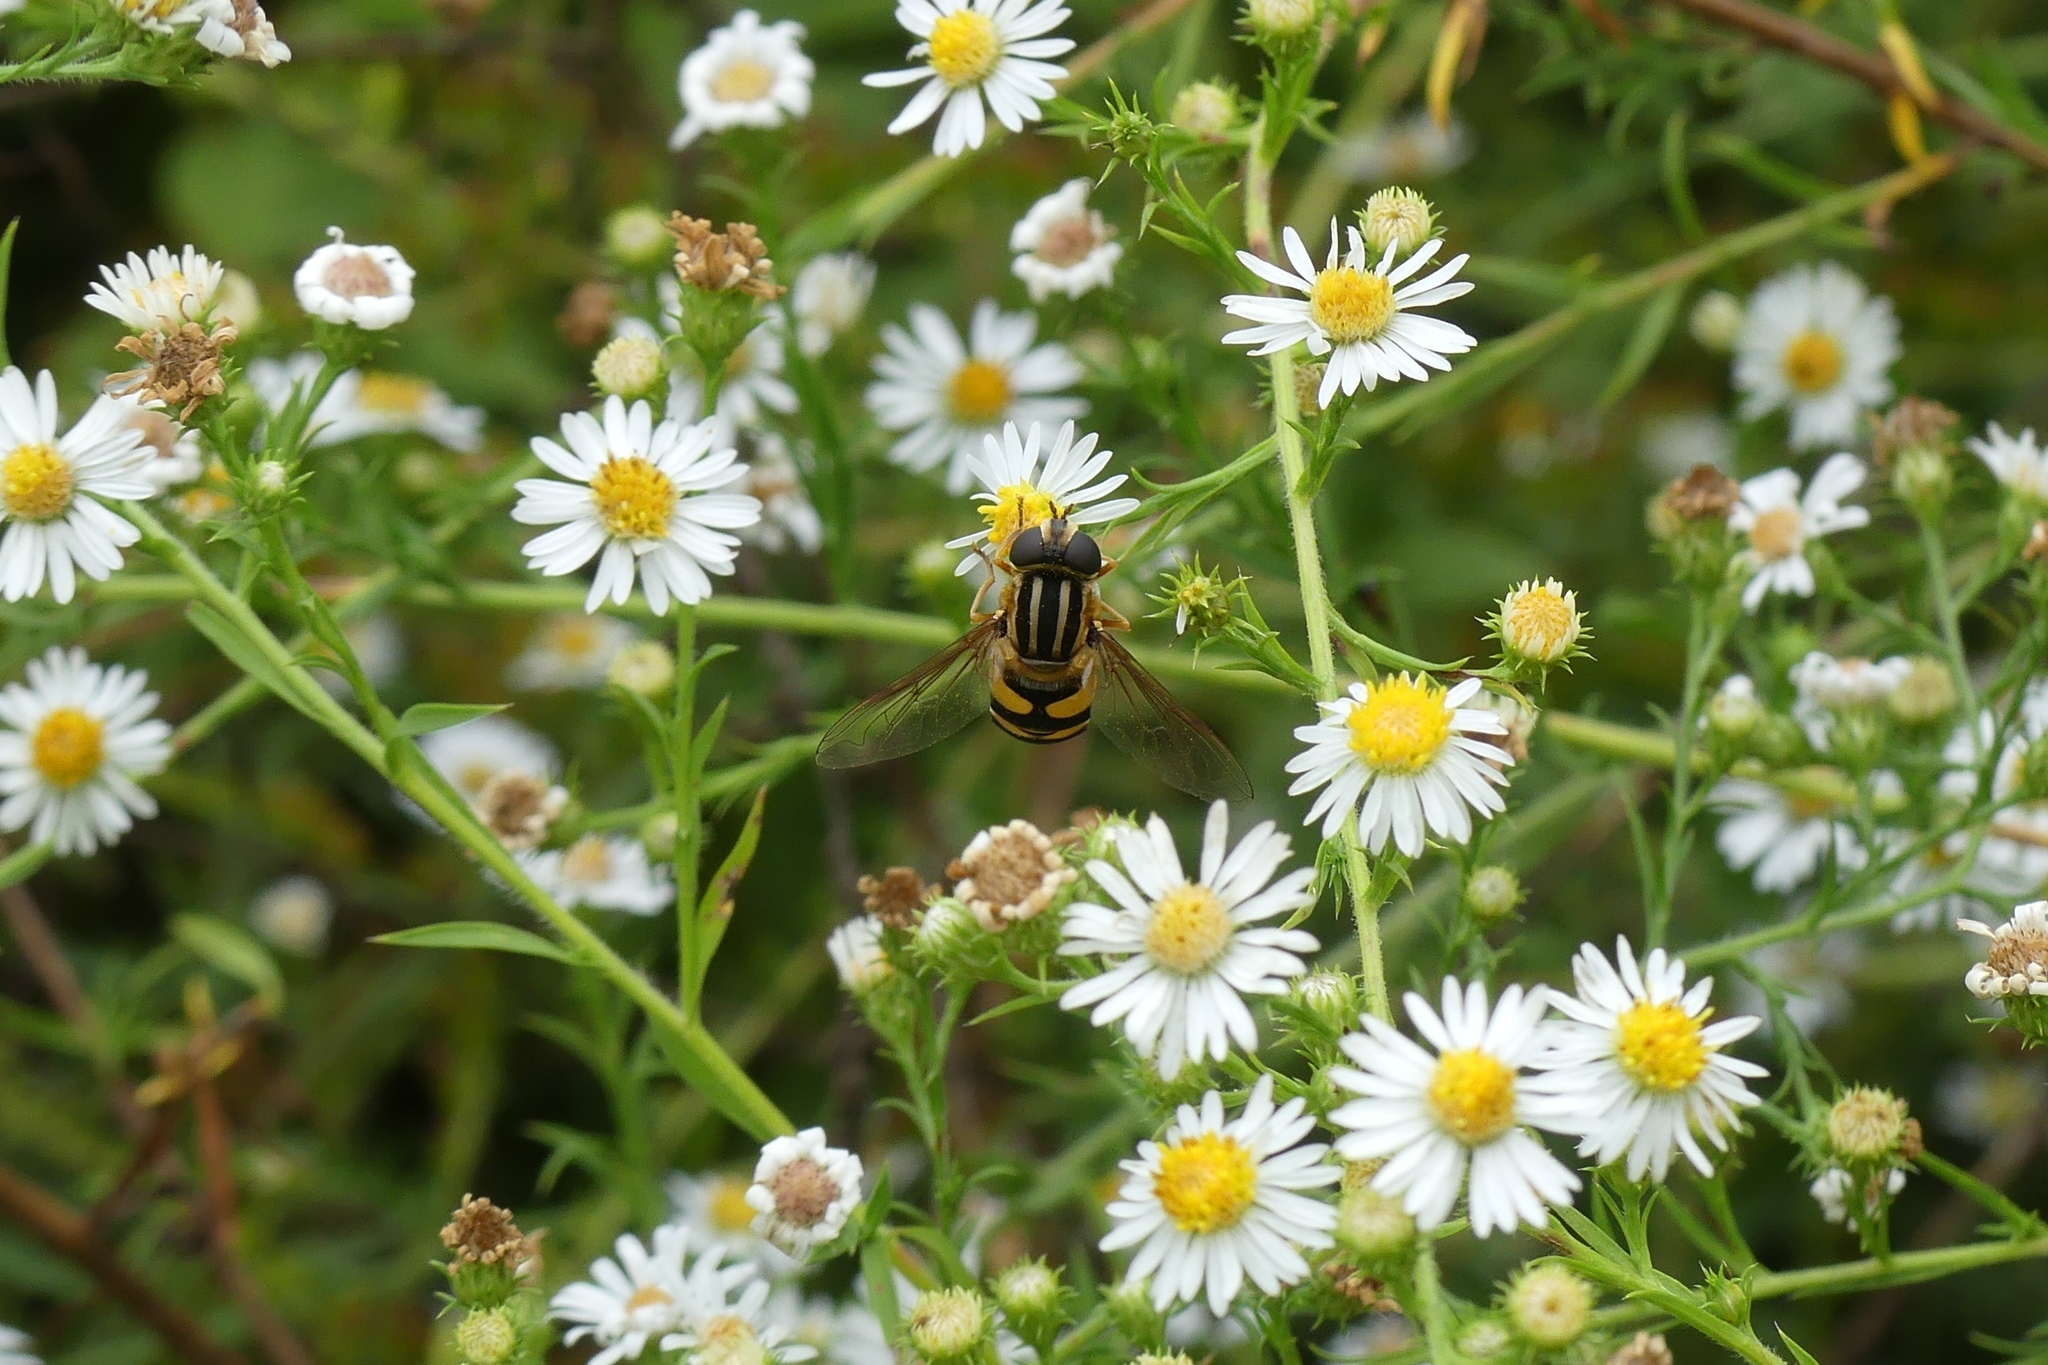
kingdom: Animalia
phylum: Arthropoda
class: Insecta
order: Diptera
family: Syrphidae
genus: Helophilus
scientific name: Helophilus fasciatus
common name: Narrow-headed marsh fly
